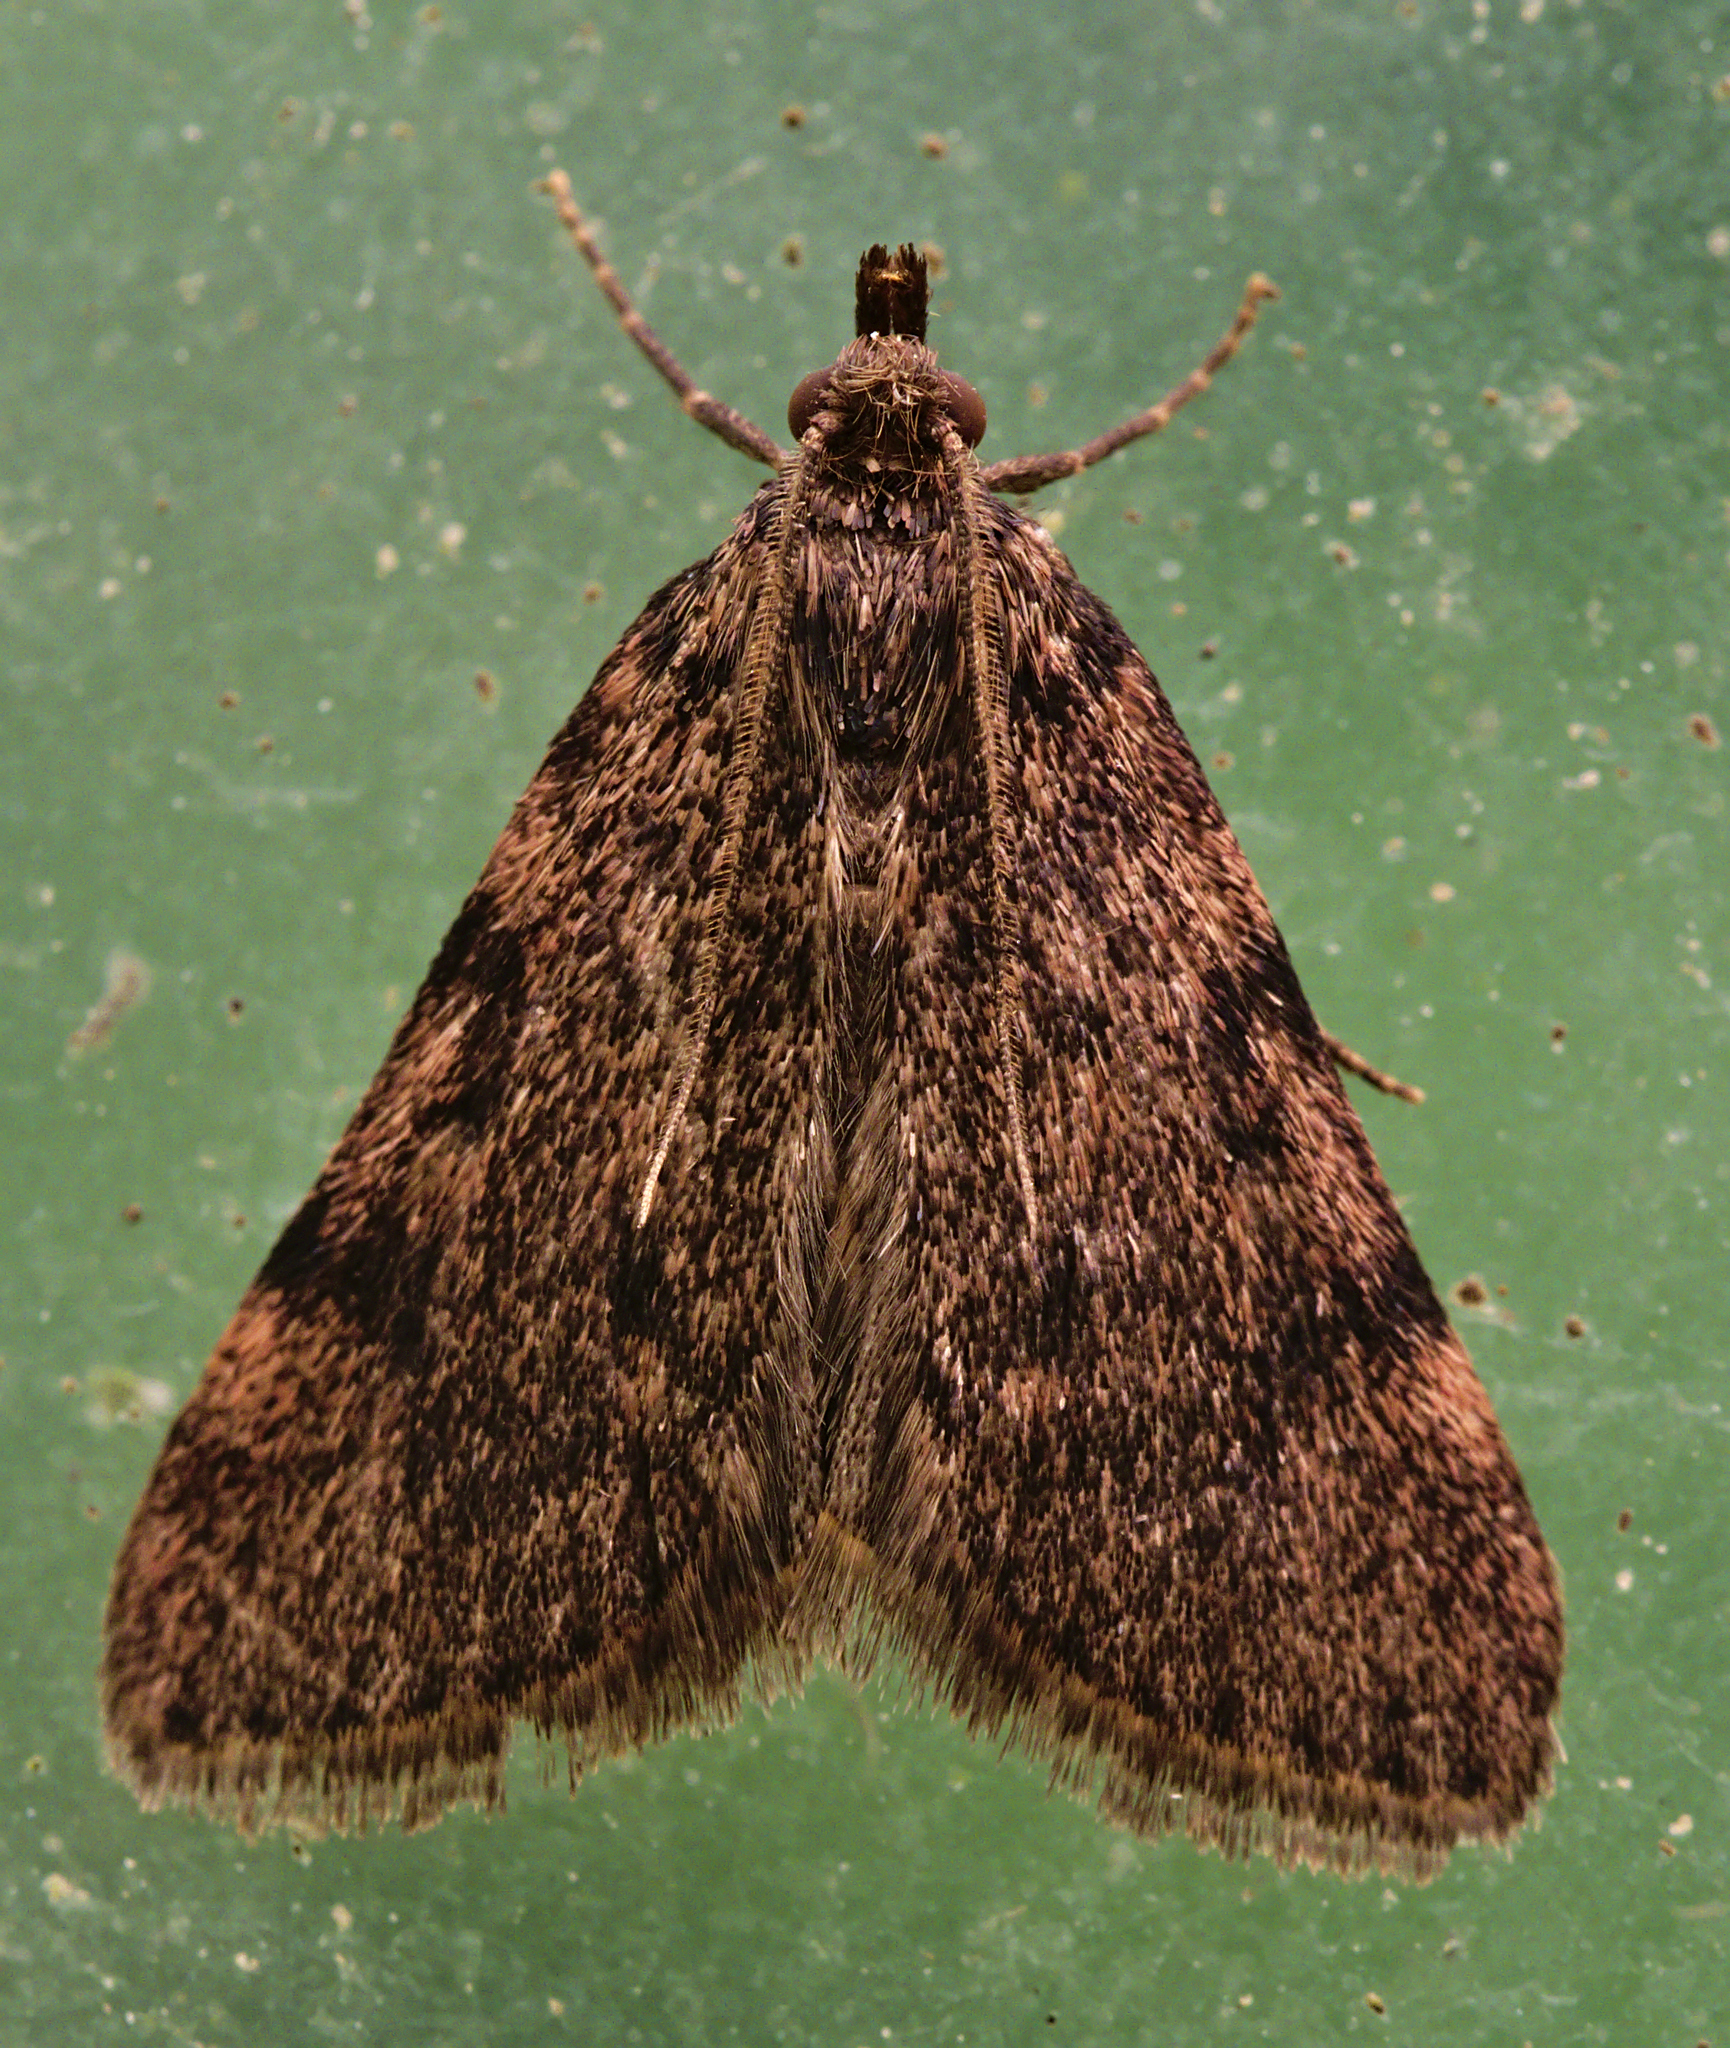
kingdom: Animalia
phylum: Arthropoda
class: Insecta
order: Lepidoptera
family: Pyralidae
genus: Aglossa
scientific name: Aglossa pinguinalis
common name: Large tabby
